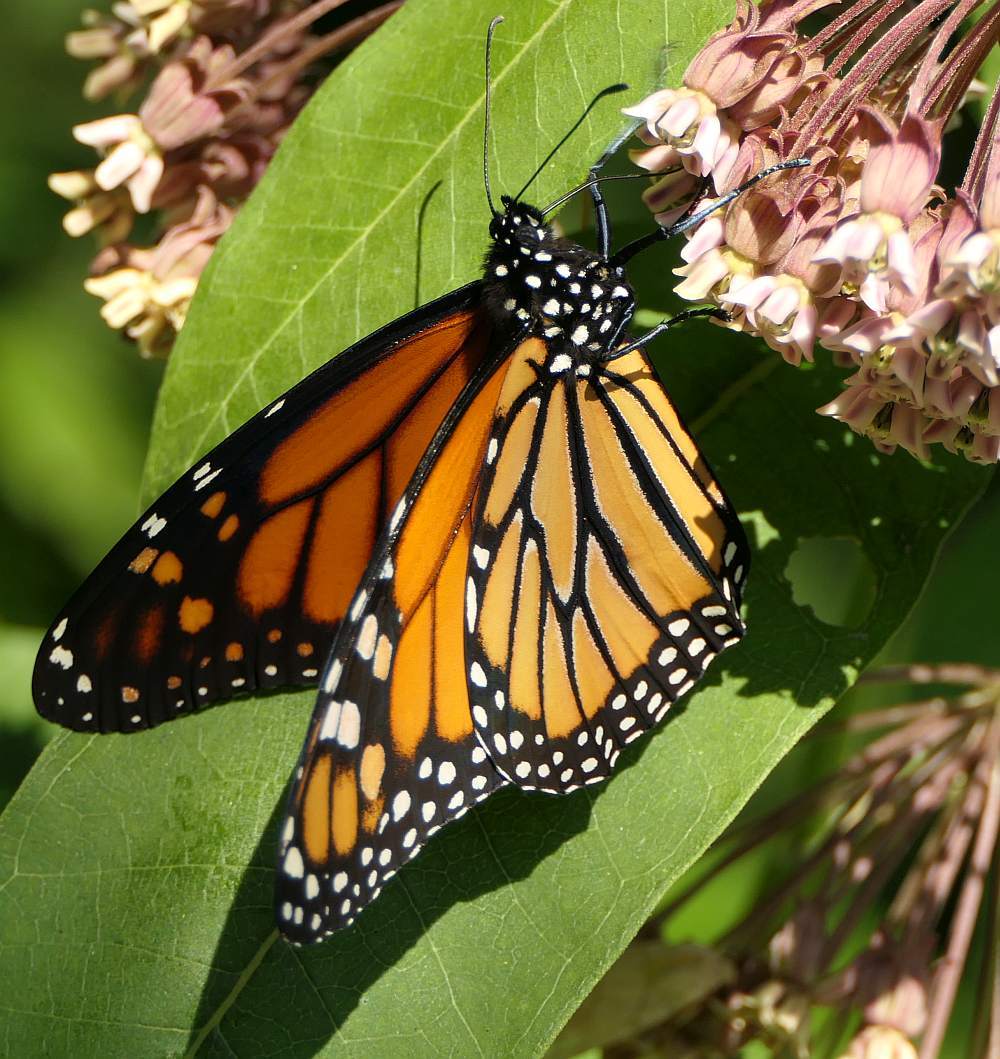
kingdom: Animalia
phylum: Arthropoda
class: Insecta
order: Lepidoptera
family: Nymphalidae
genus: Danaus
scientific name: Danaus plexippus
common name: Monarch
